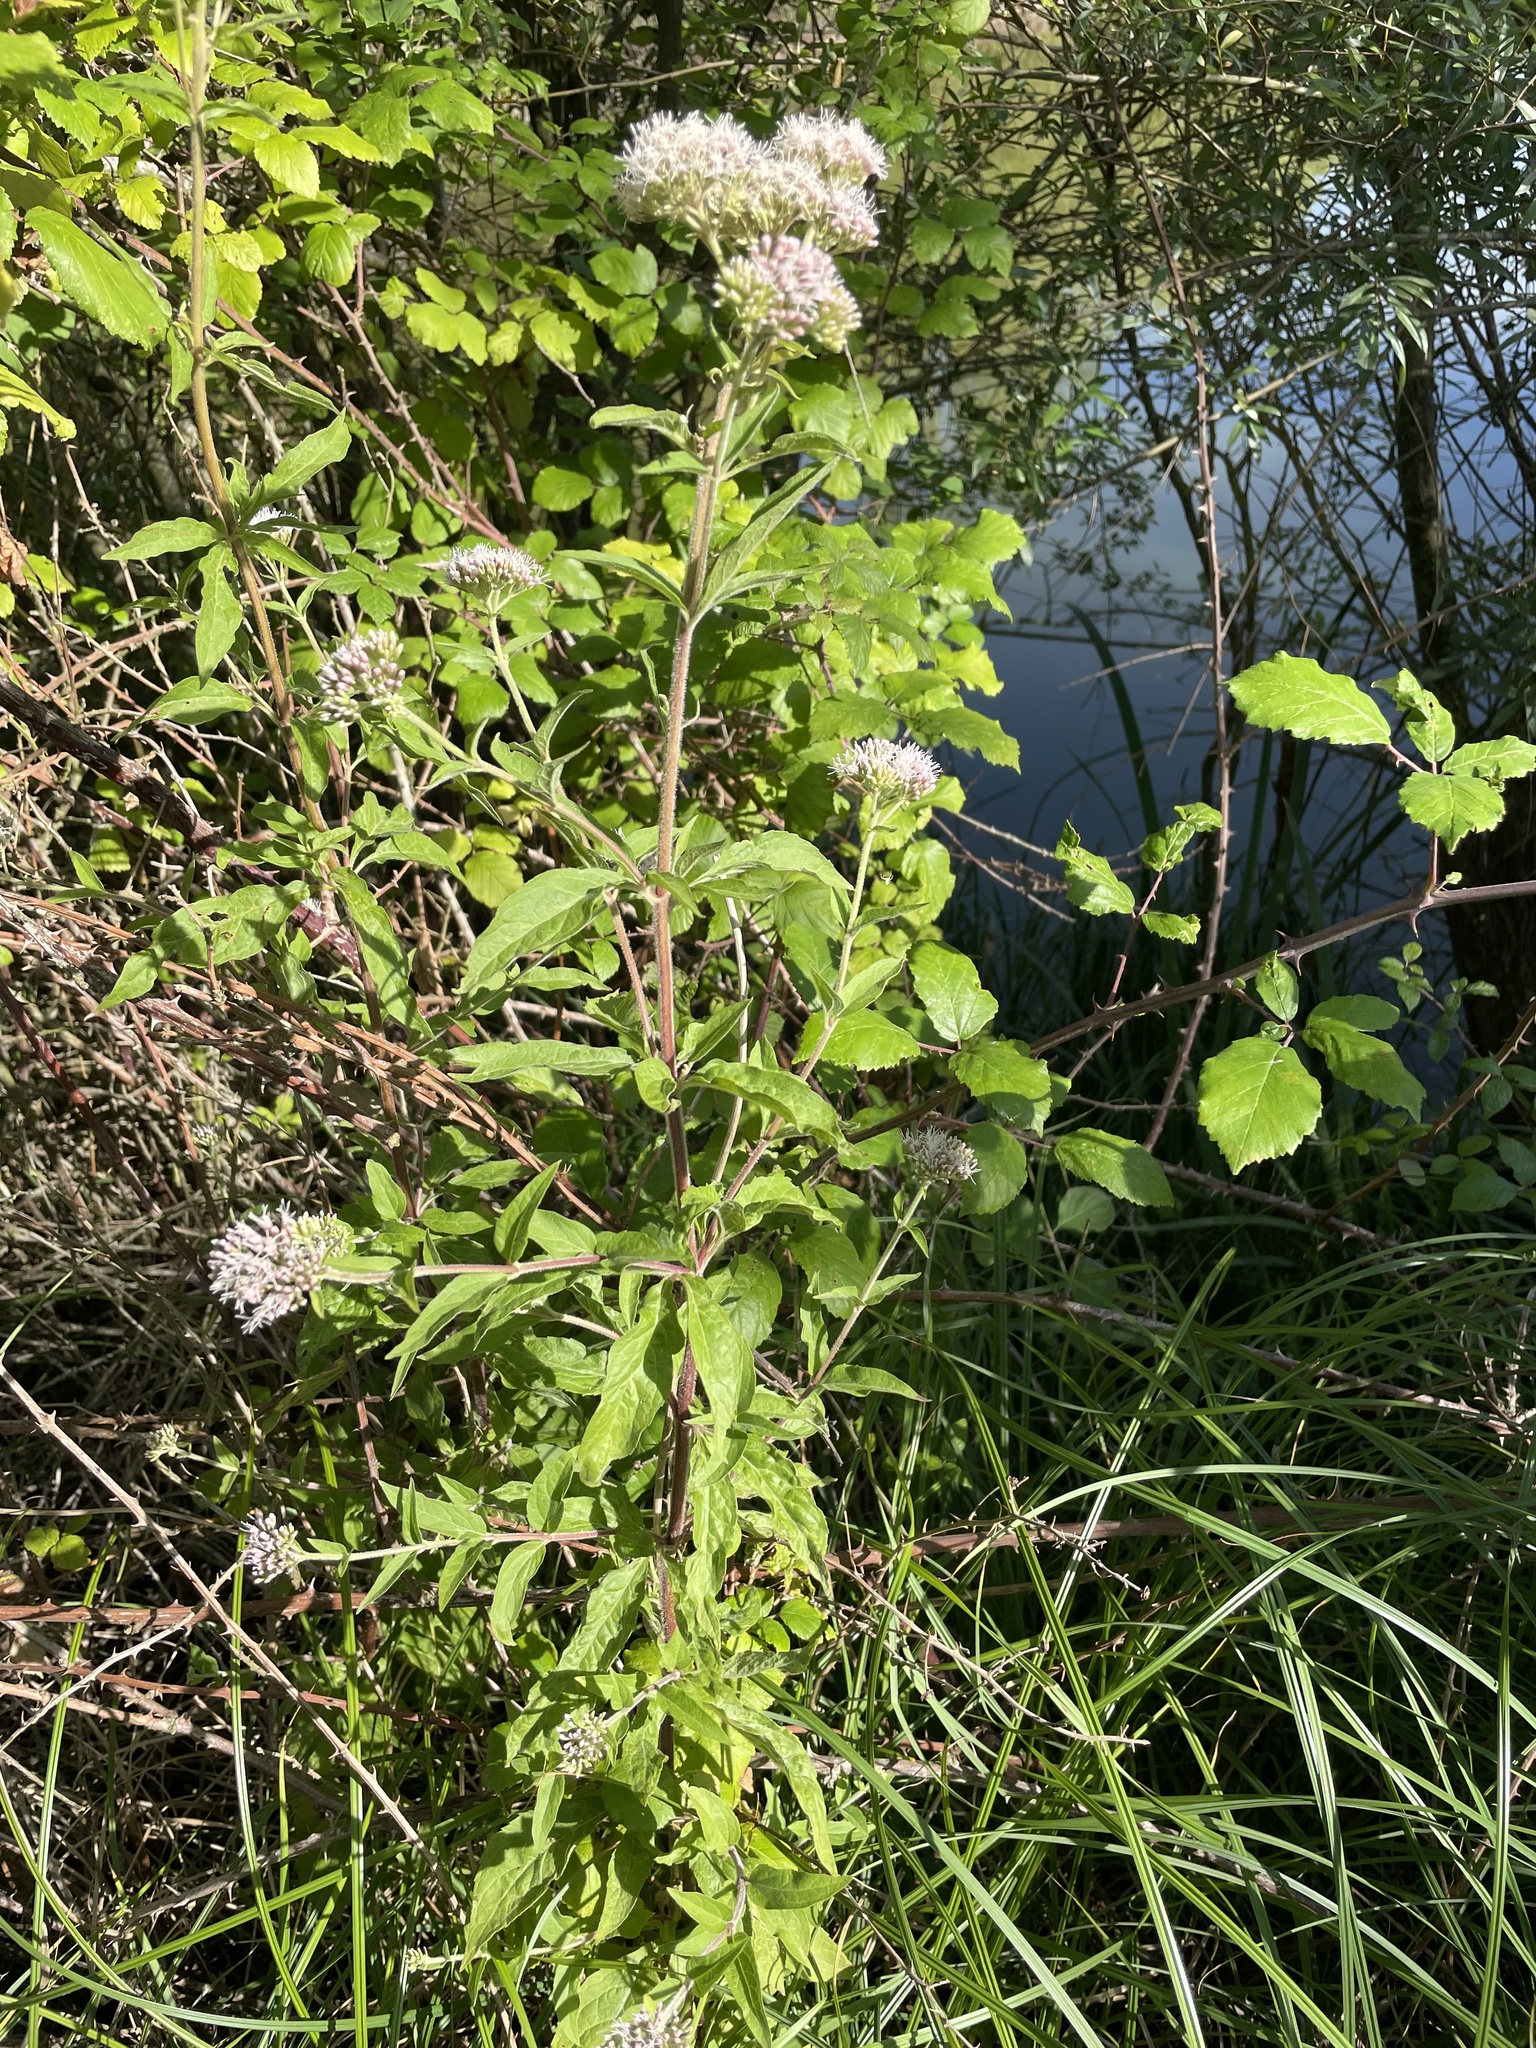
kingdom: Plantae
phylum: Tracheophyta
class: Magnoliopsida
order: Asterales
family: Asteraceae
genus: Eupatorium
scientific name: Eupatorium cannabinum
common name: Hemp-agrimony
